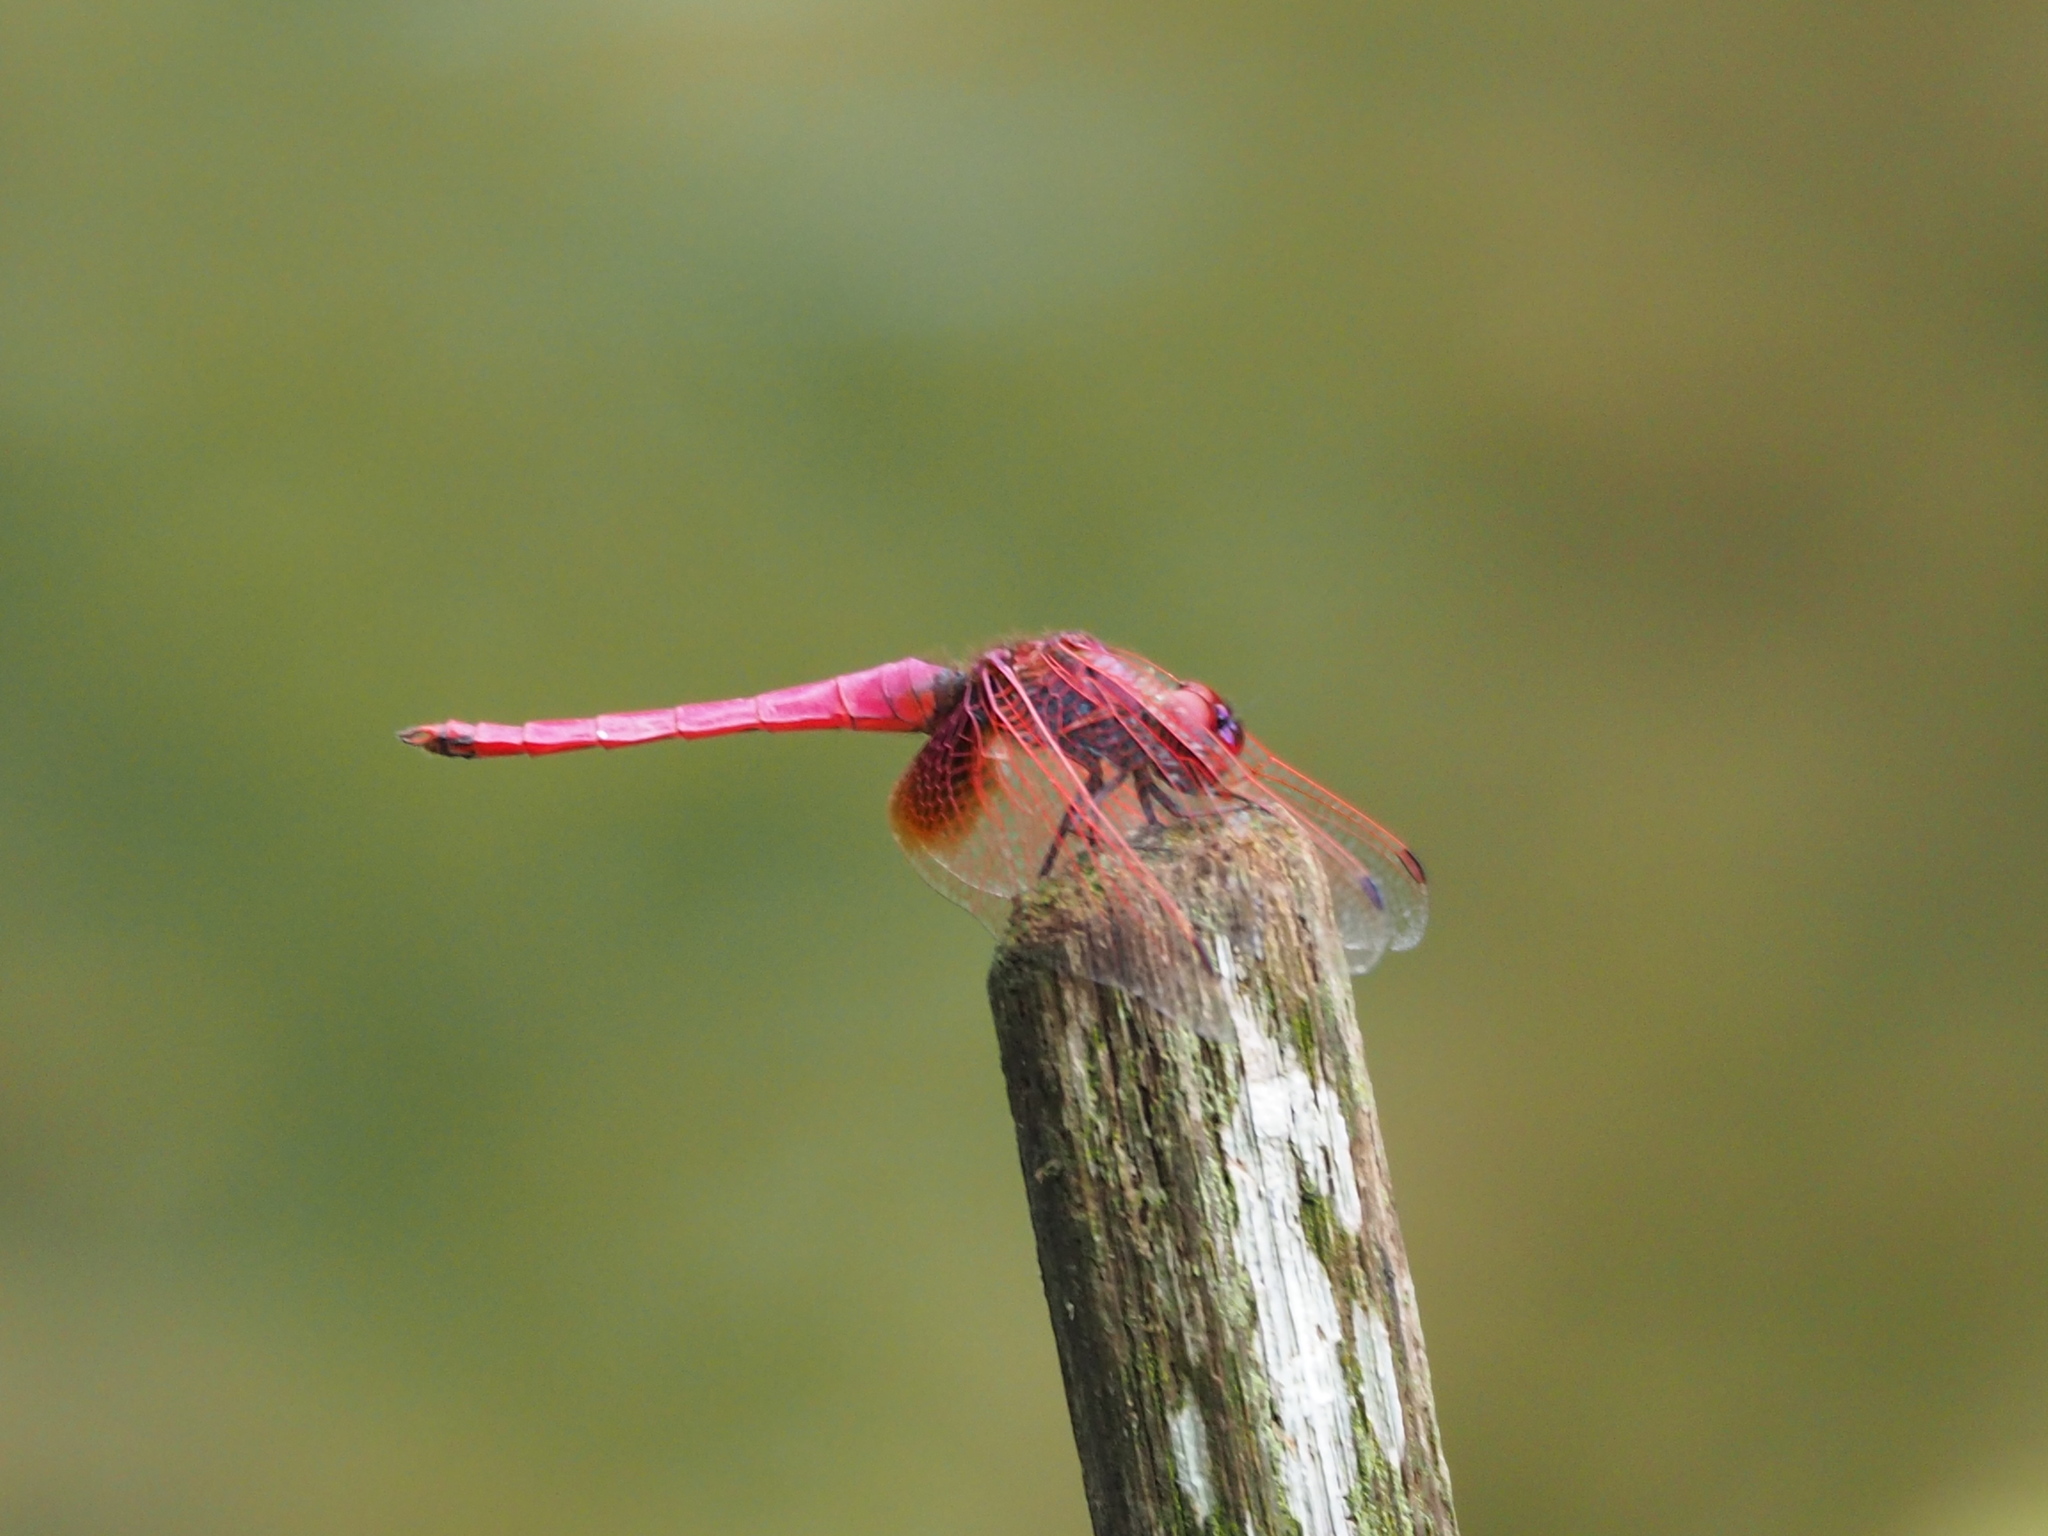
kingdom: Animalia
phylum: Arthropoda
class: Insecta
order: Odonata
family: Libellulidae
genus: Trithemis
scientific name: Trithemis aurora
